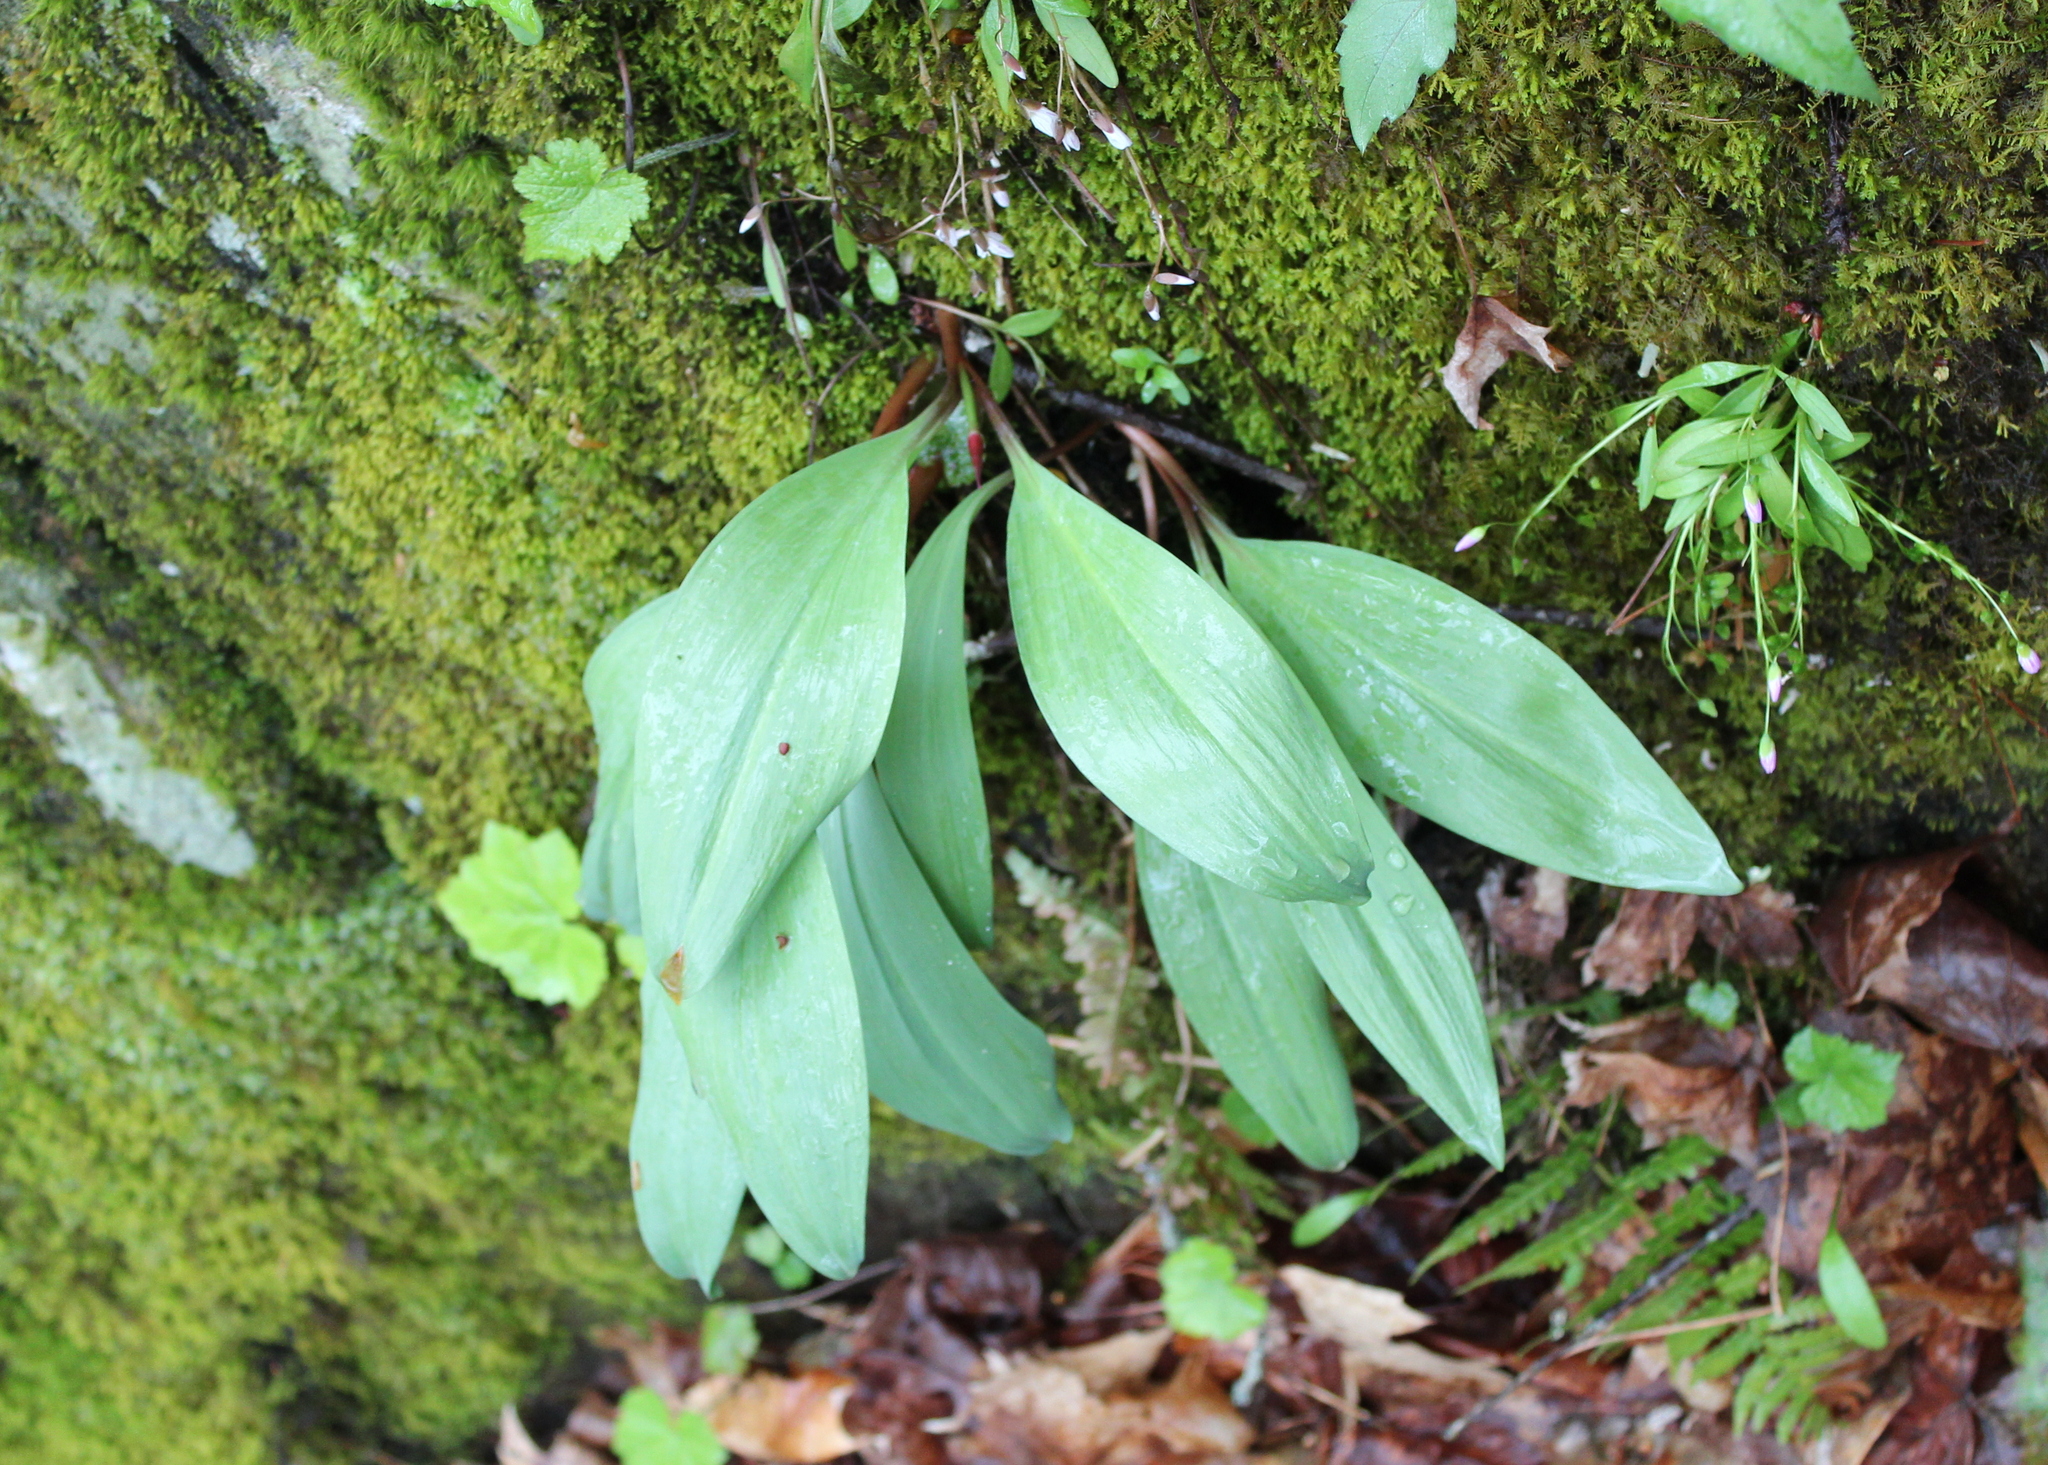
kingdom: Plantae
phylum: Tracheophyta
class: Liliopsida
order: Asparagales
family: Amaryllidaceae
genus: Allium
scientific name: Allium tricoccum
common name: Ramp
